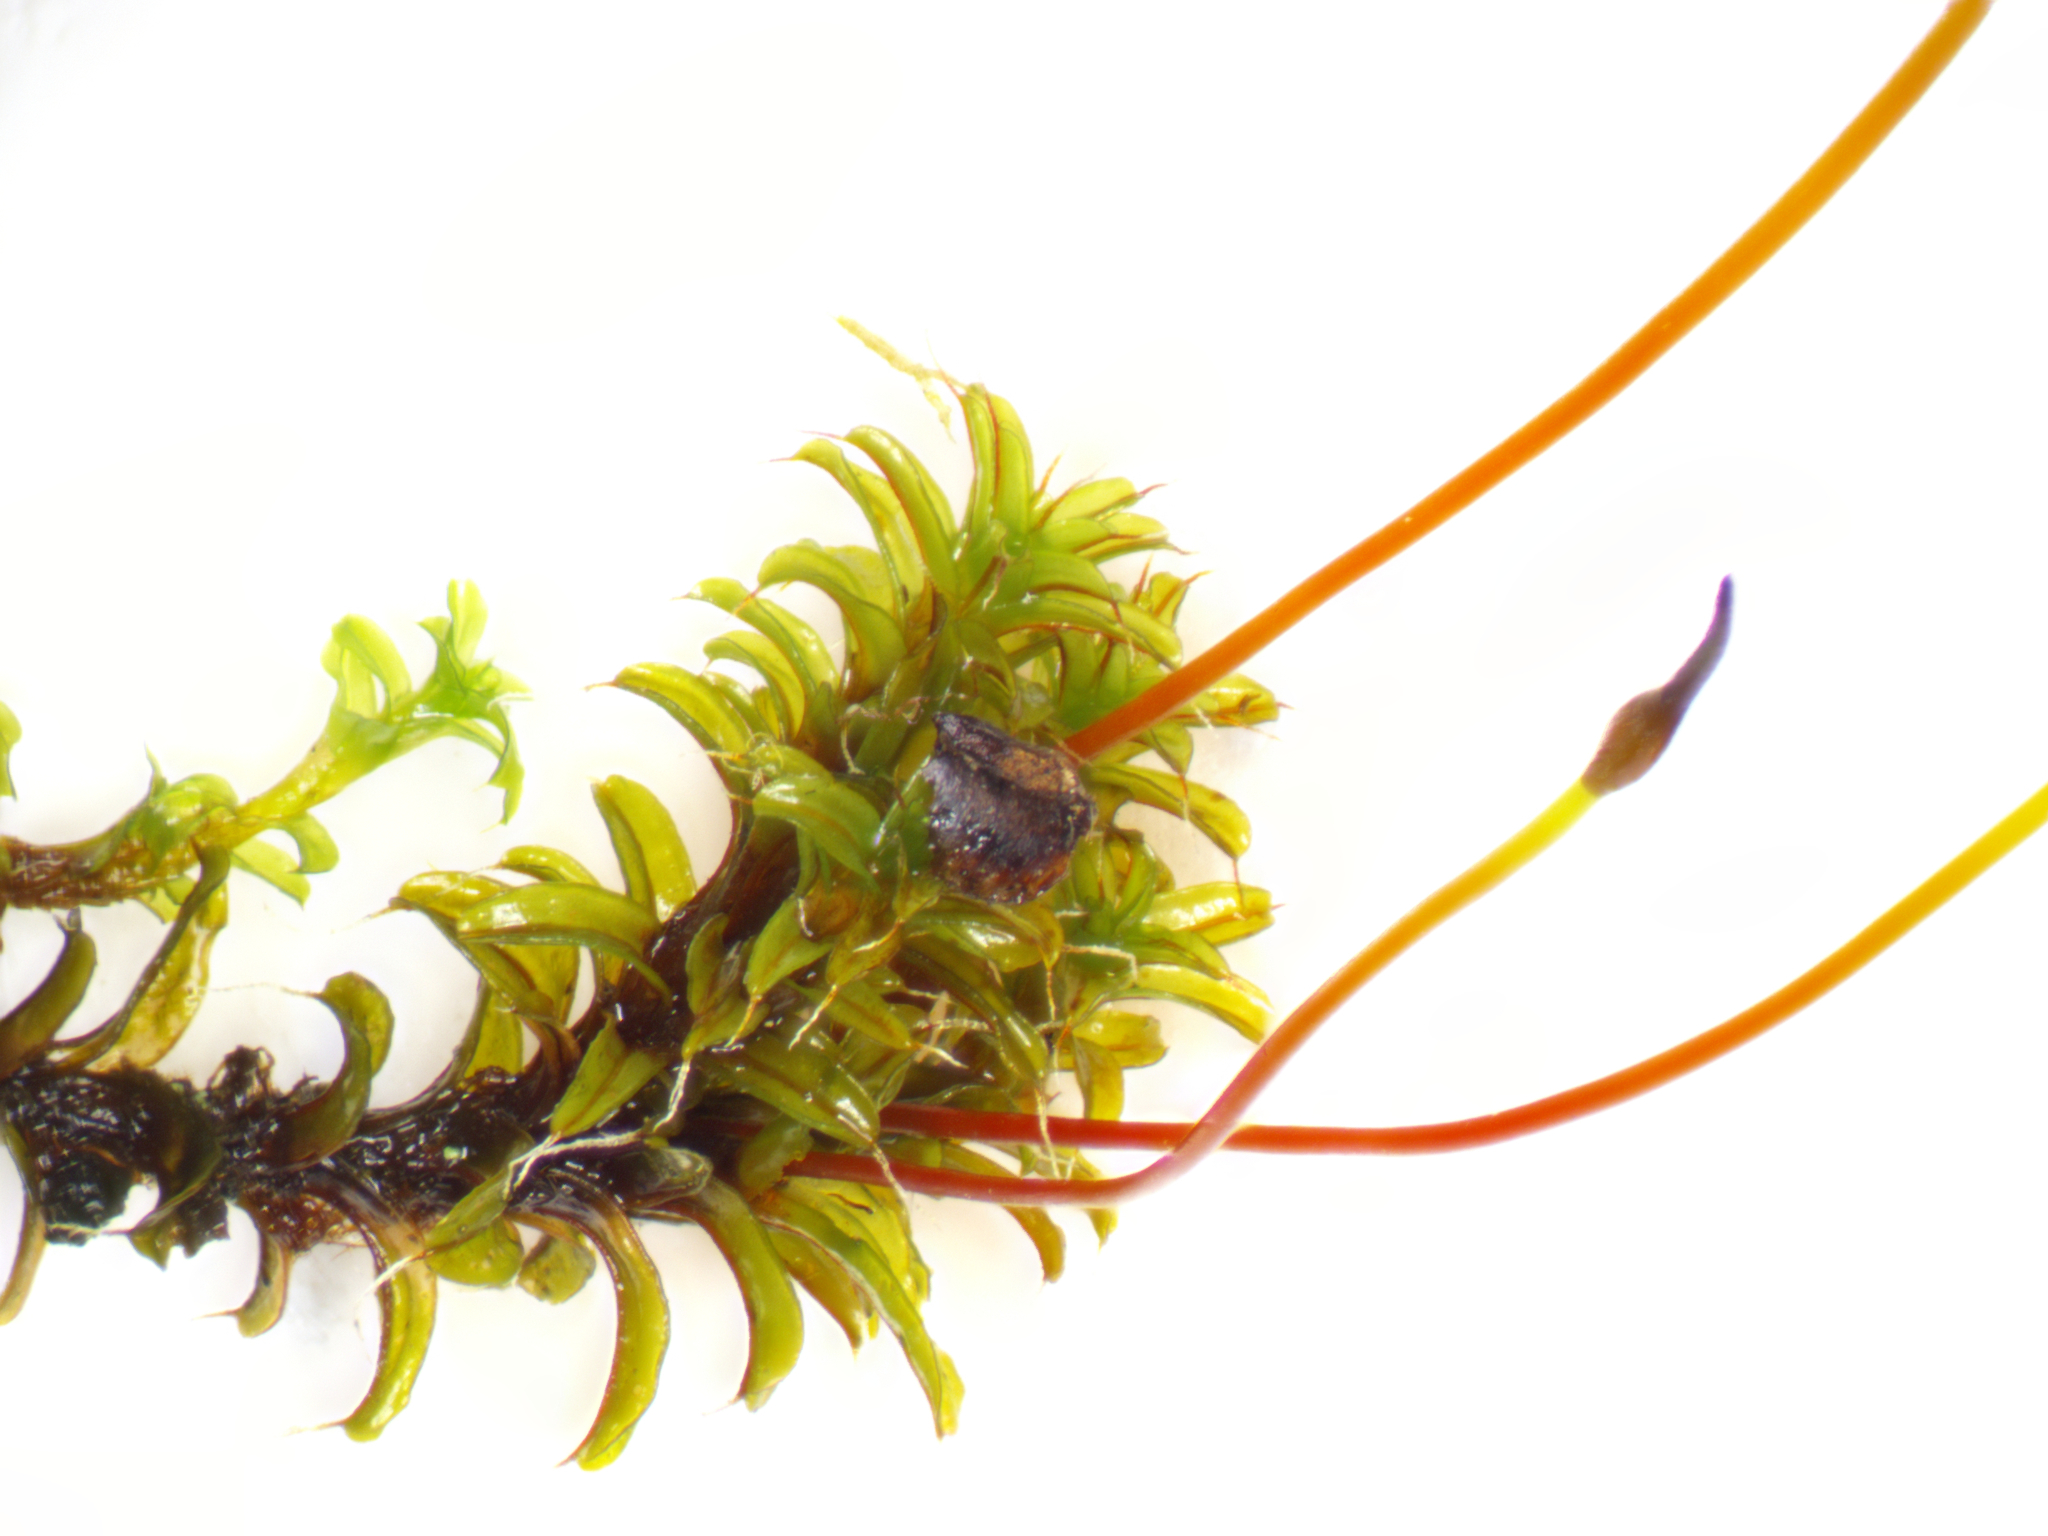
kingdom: Plantae
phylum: Bryophyta
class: Bryopsida
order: Pottiales
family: Pottiaceae
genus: Syntrichia
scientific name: Syntrichia ruralis
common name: Sidewalk screw moss
